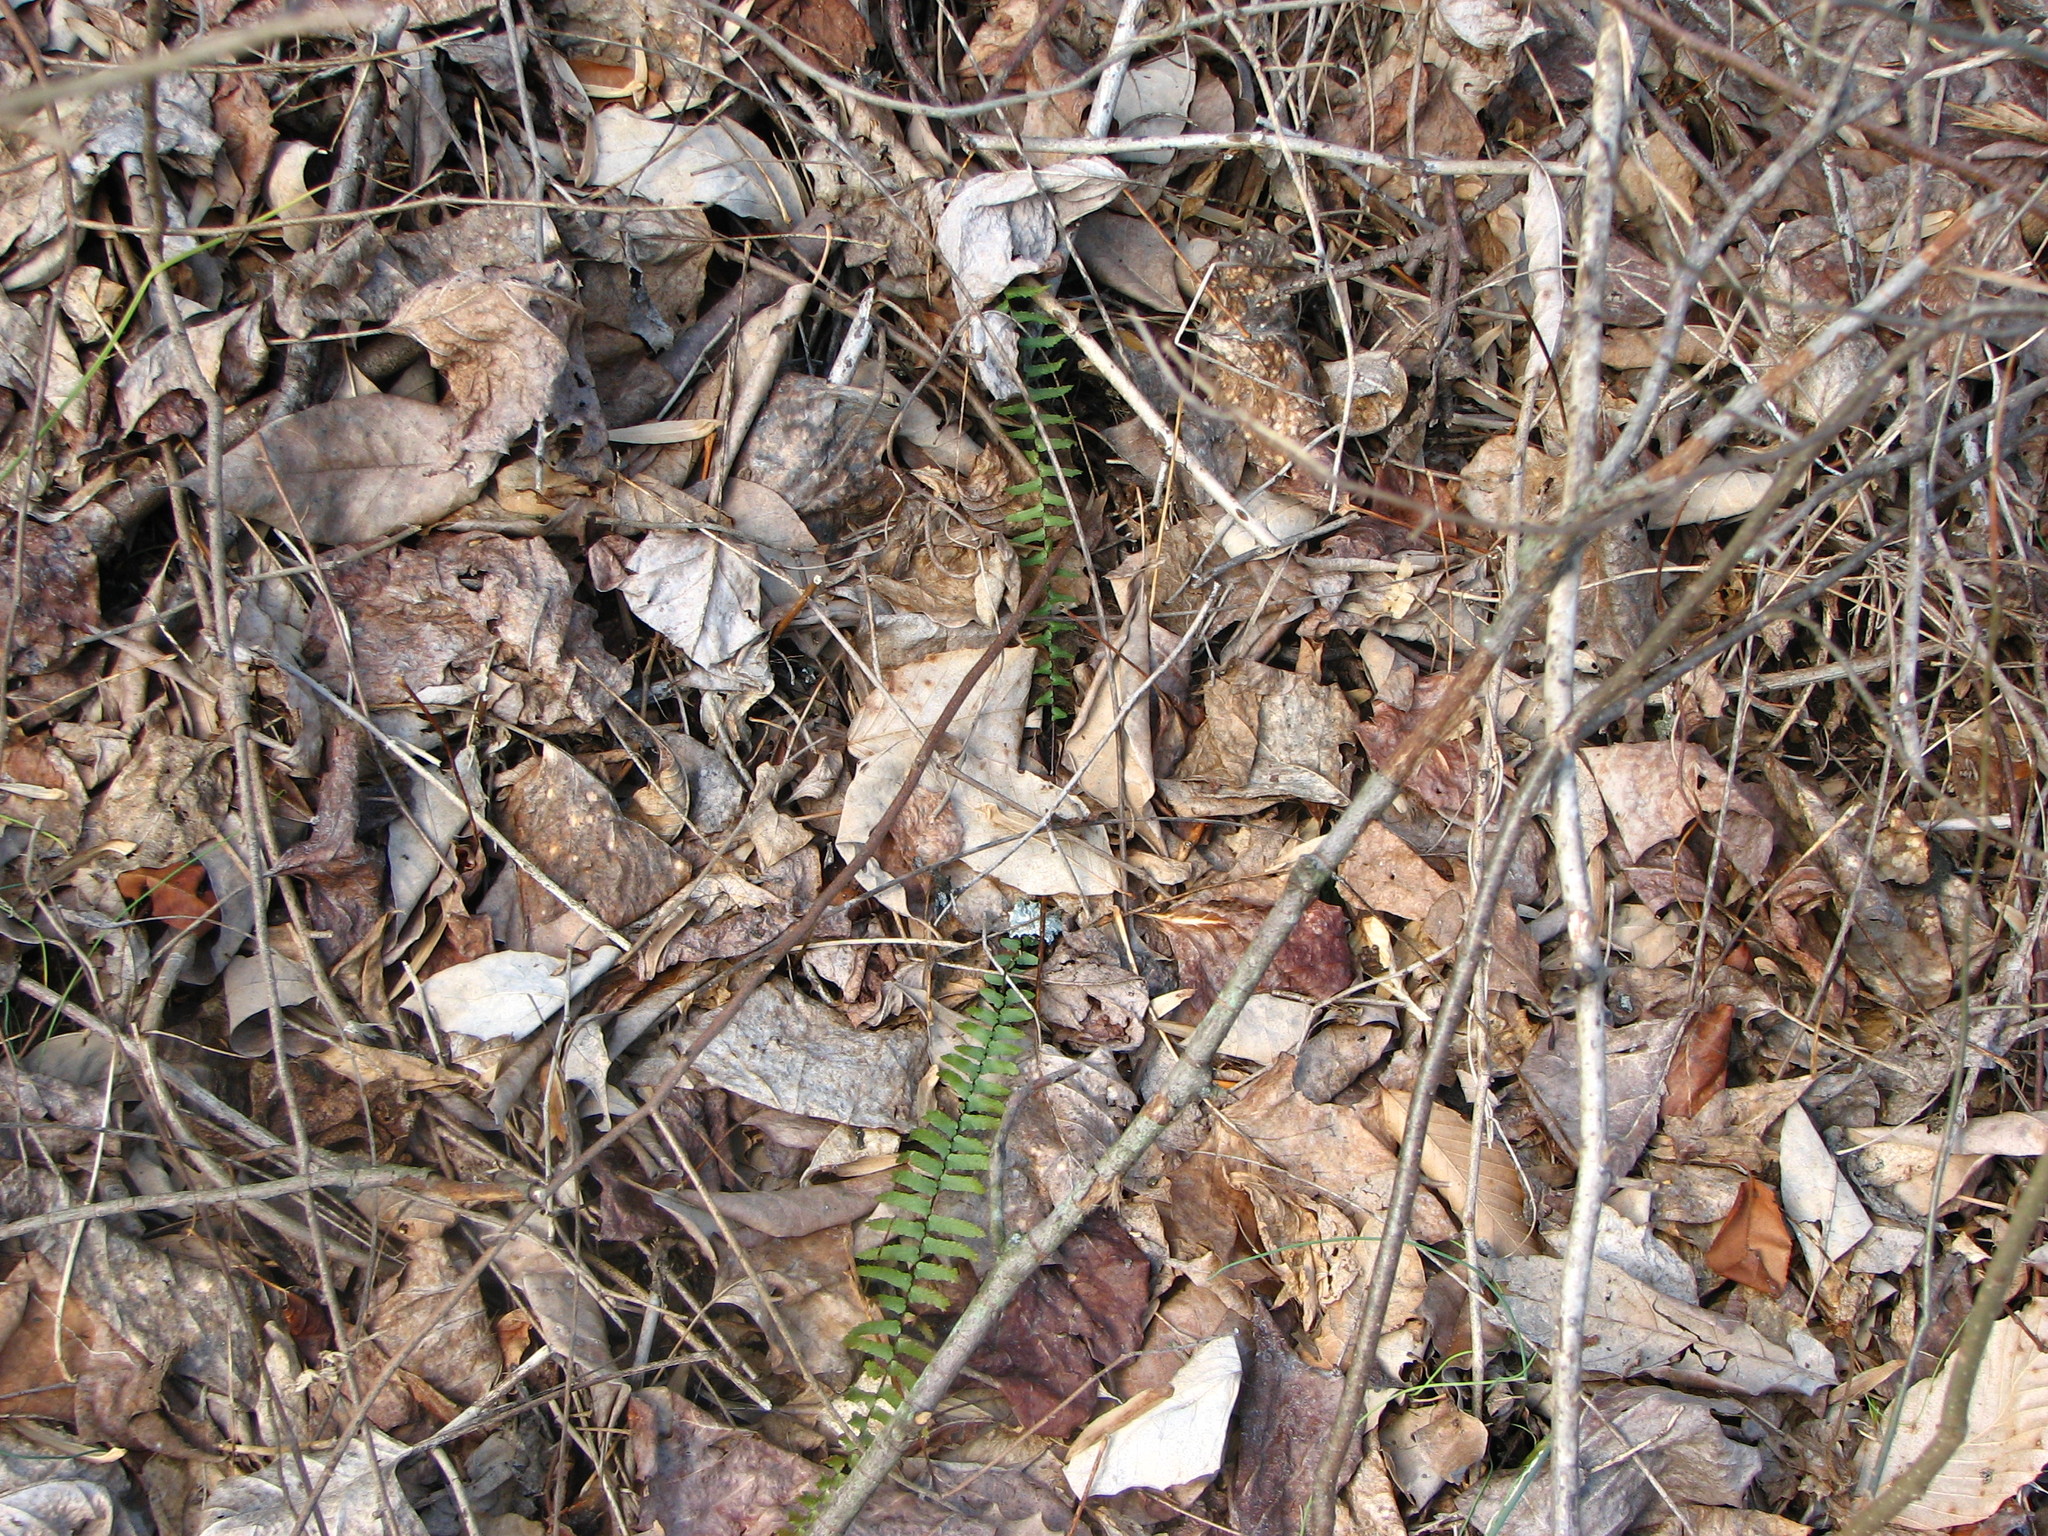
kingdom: Plantae
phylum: Tracheophyta
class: Polypodiopsida
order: Polypodiales
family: Aspleniaceae
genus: Asplenium
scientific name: Asplenium platyneuron
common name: Ebony spleenwort
